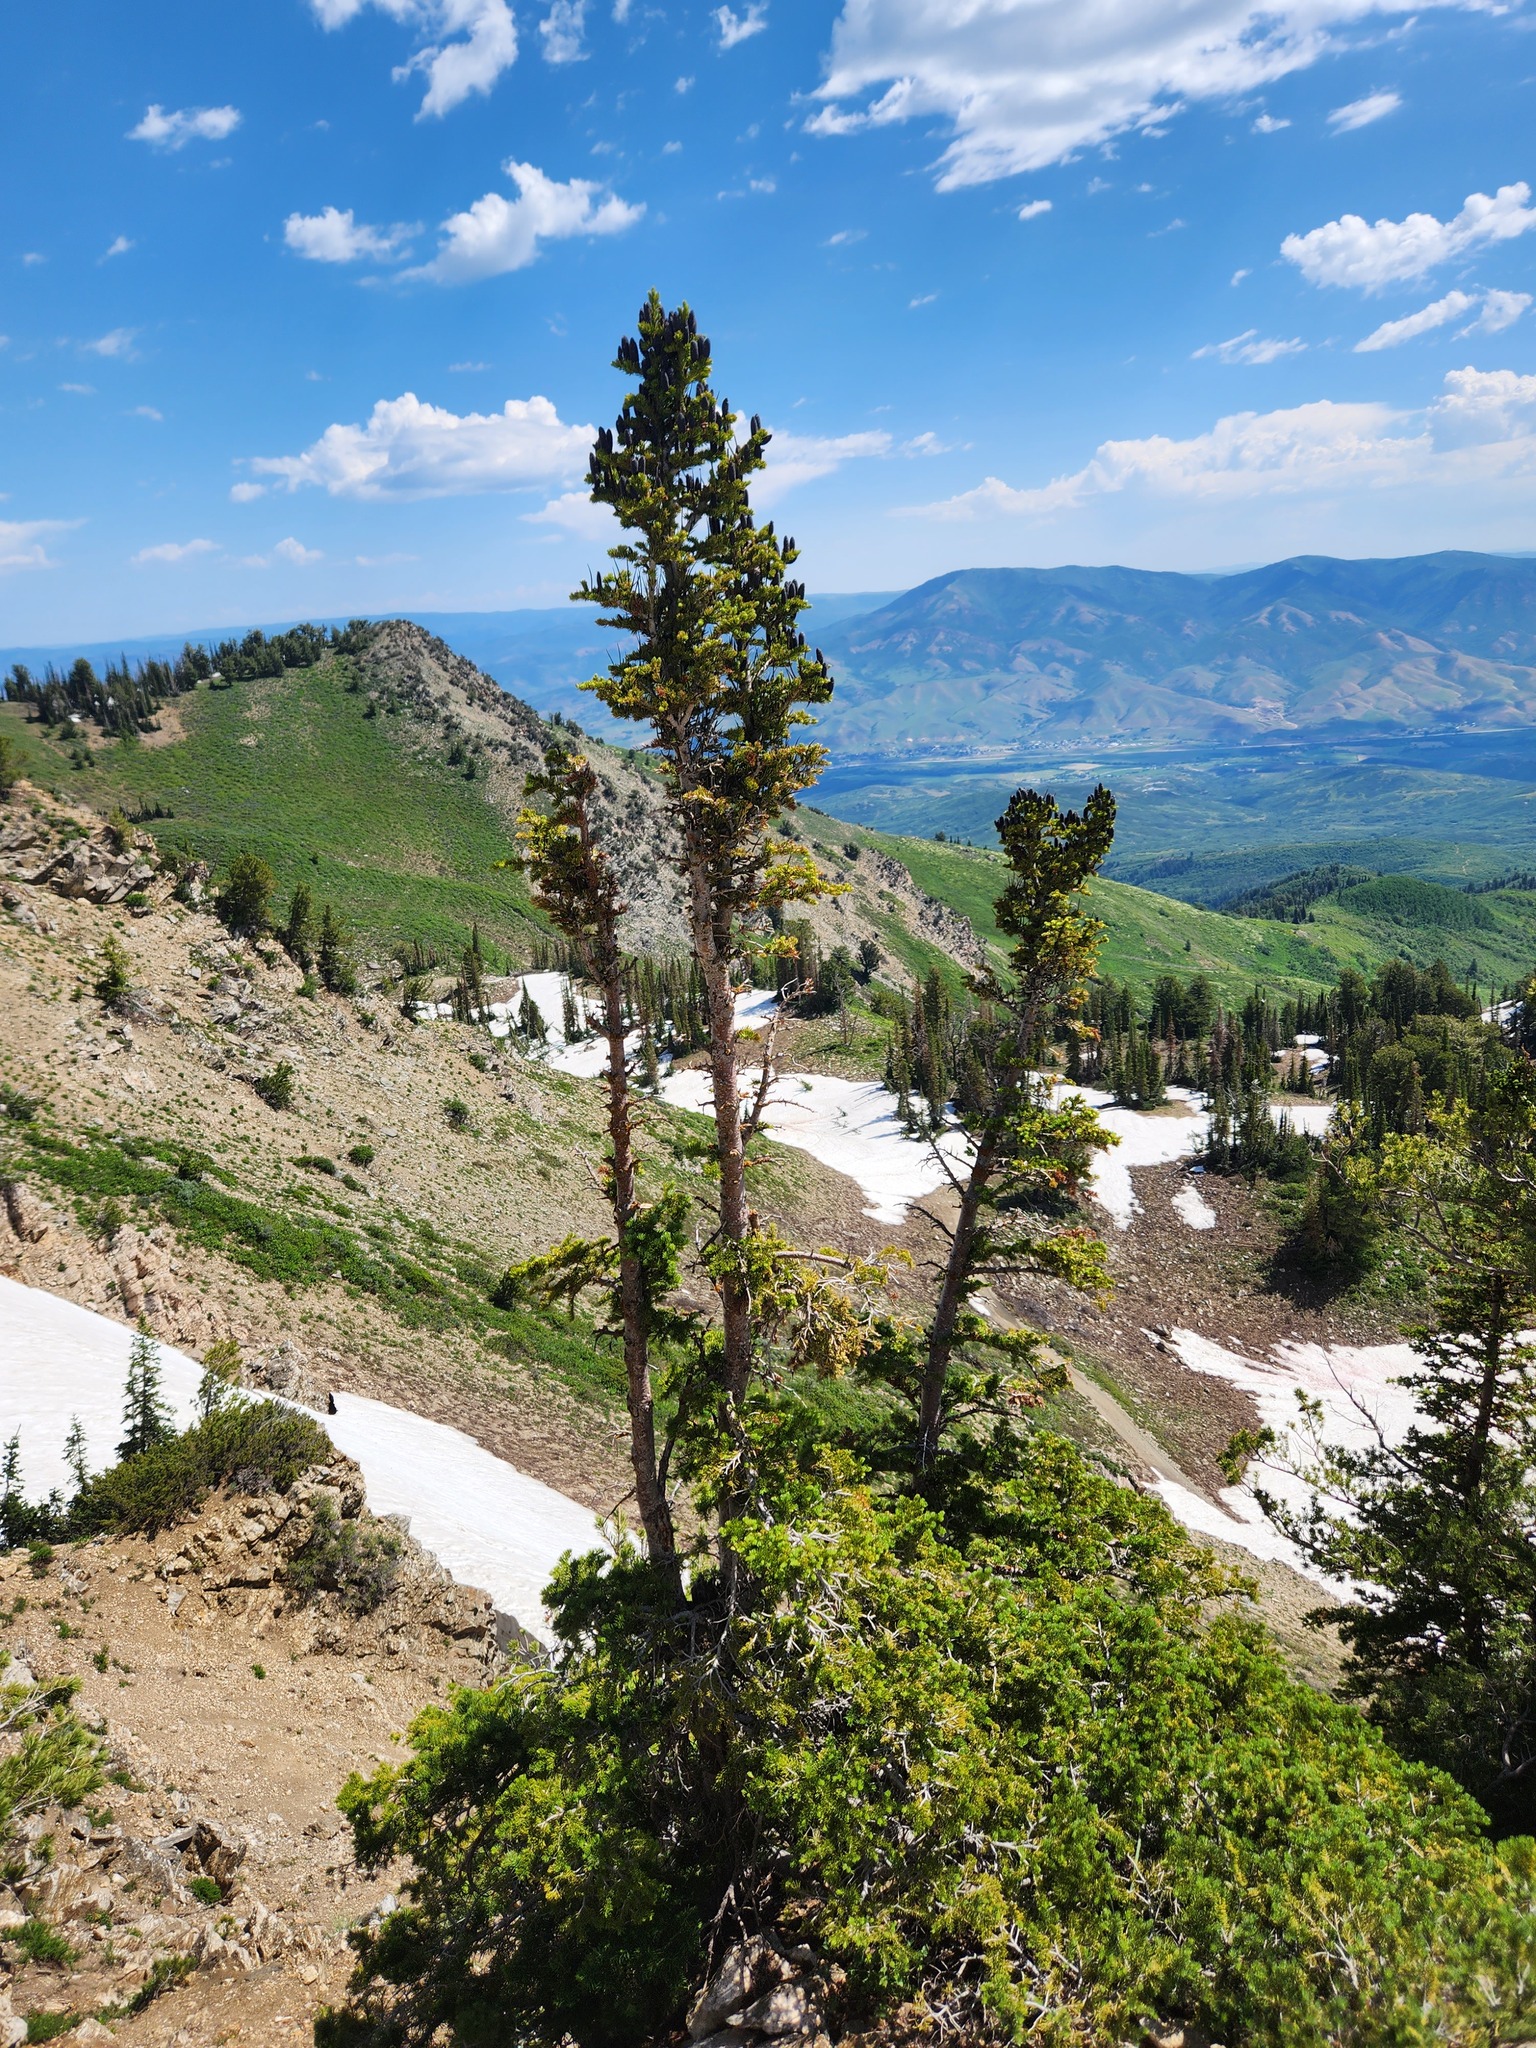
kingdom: Plantae
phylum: Tracheophyta
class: Pinopsida
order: Pinales
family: Pinaceae
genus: Abies
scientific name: Abies lasiocarpa
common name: Subalpine fir
